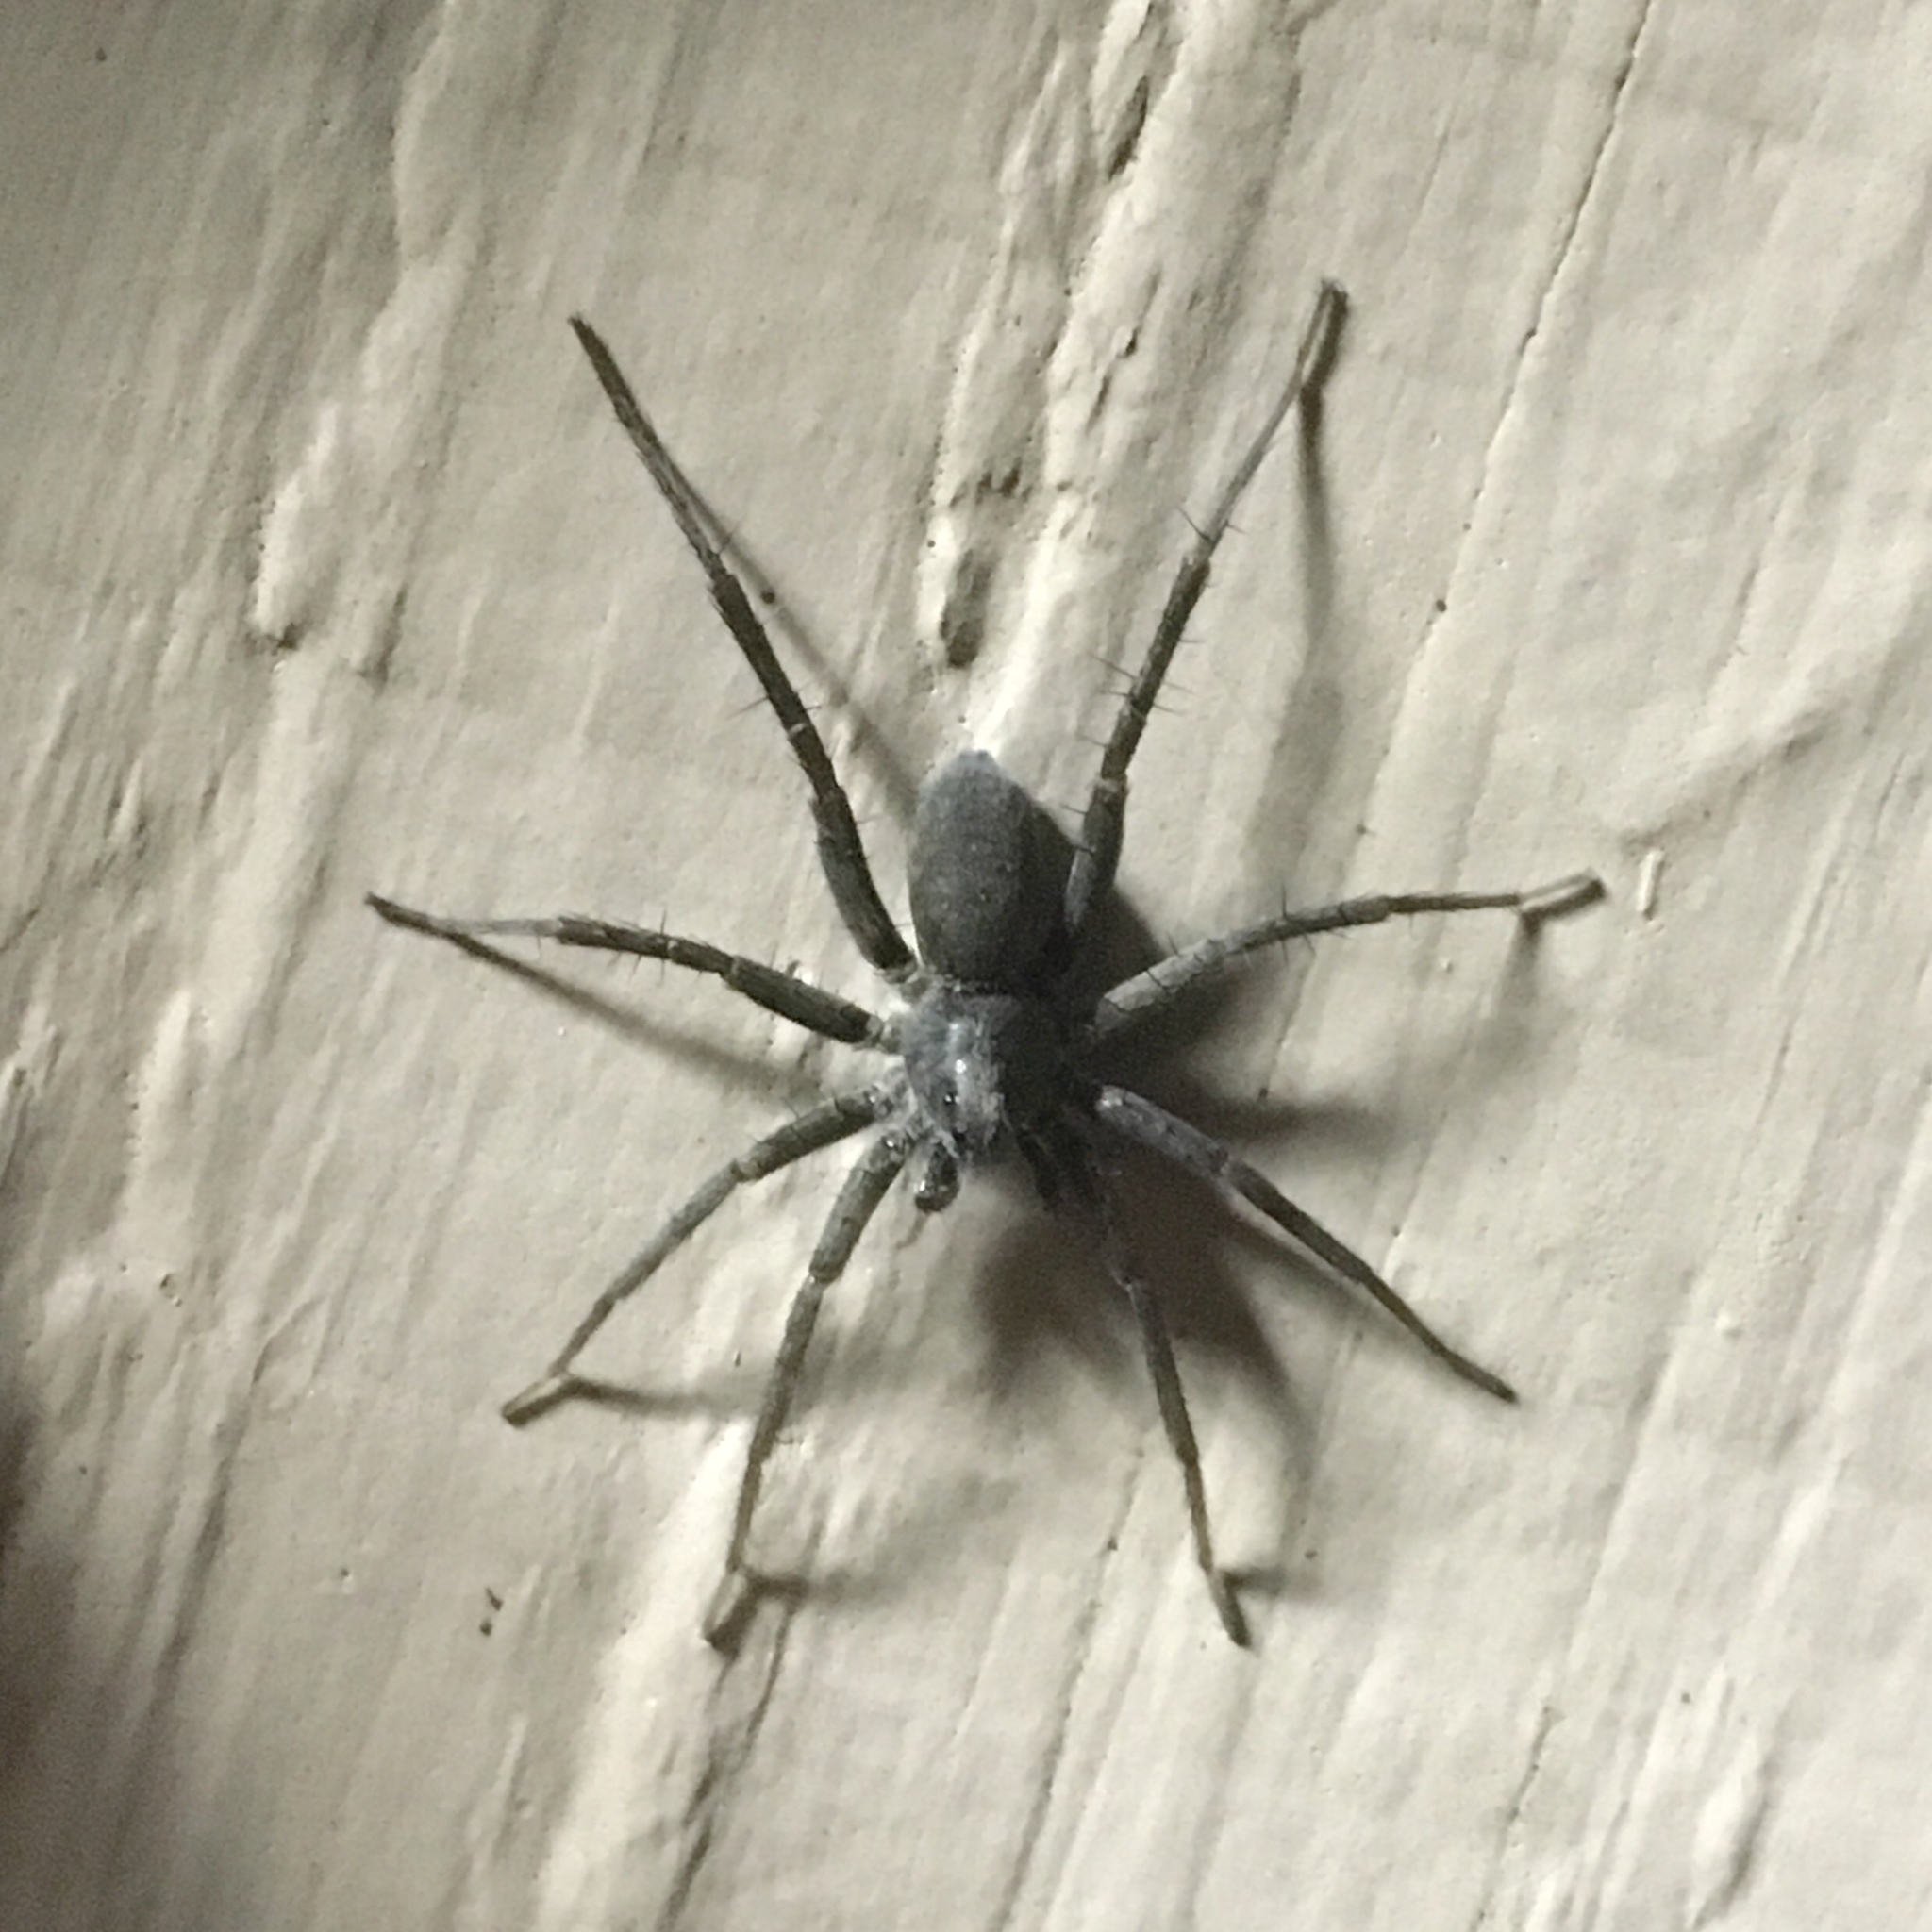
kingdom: Animalia
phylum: Arthropoda
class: Arachnida
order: Araneae
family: Lycosidae
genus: Pardosa
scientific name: Pardosa lapidicina
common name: Stone spider
